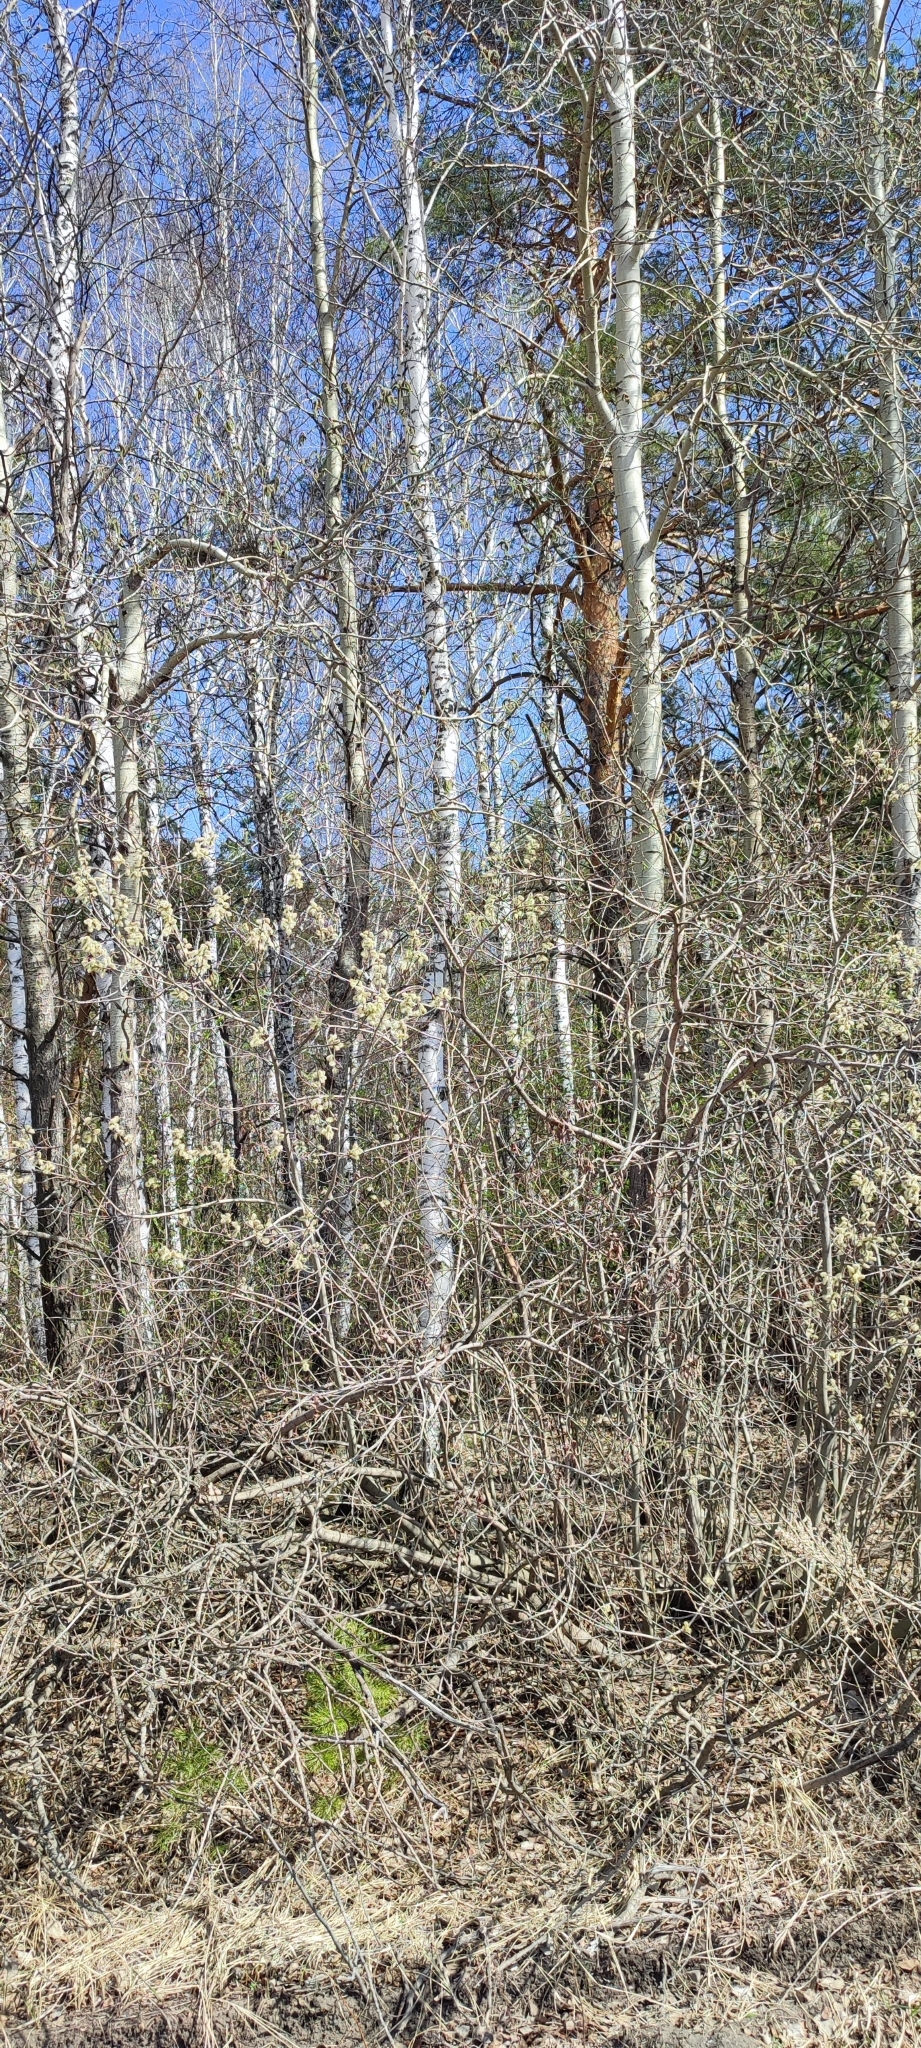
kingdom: Plantae
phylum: Tracheophyta
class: Magnoliopsida
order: Fagales
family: Betulaceae
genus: Betula
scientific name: Betula pendula
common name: Silver birch
